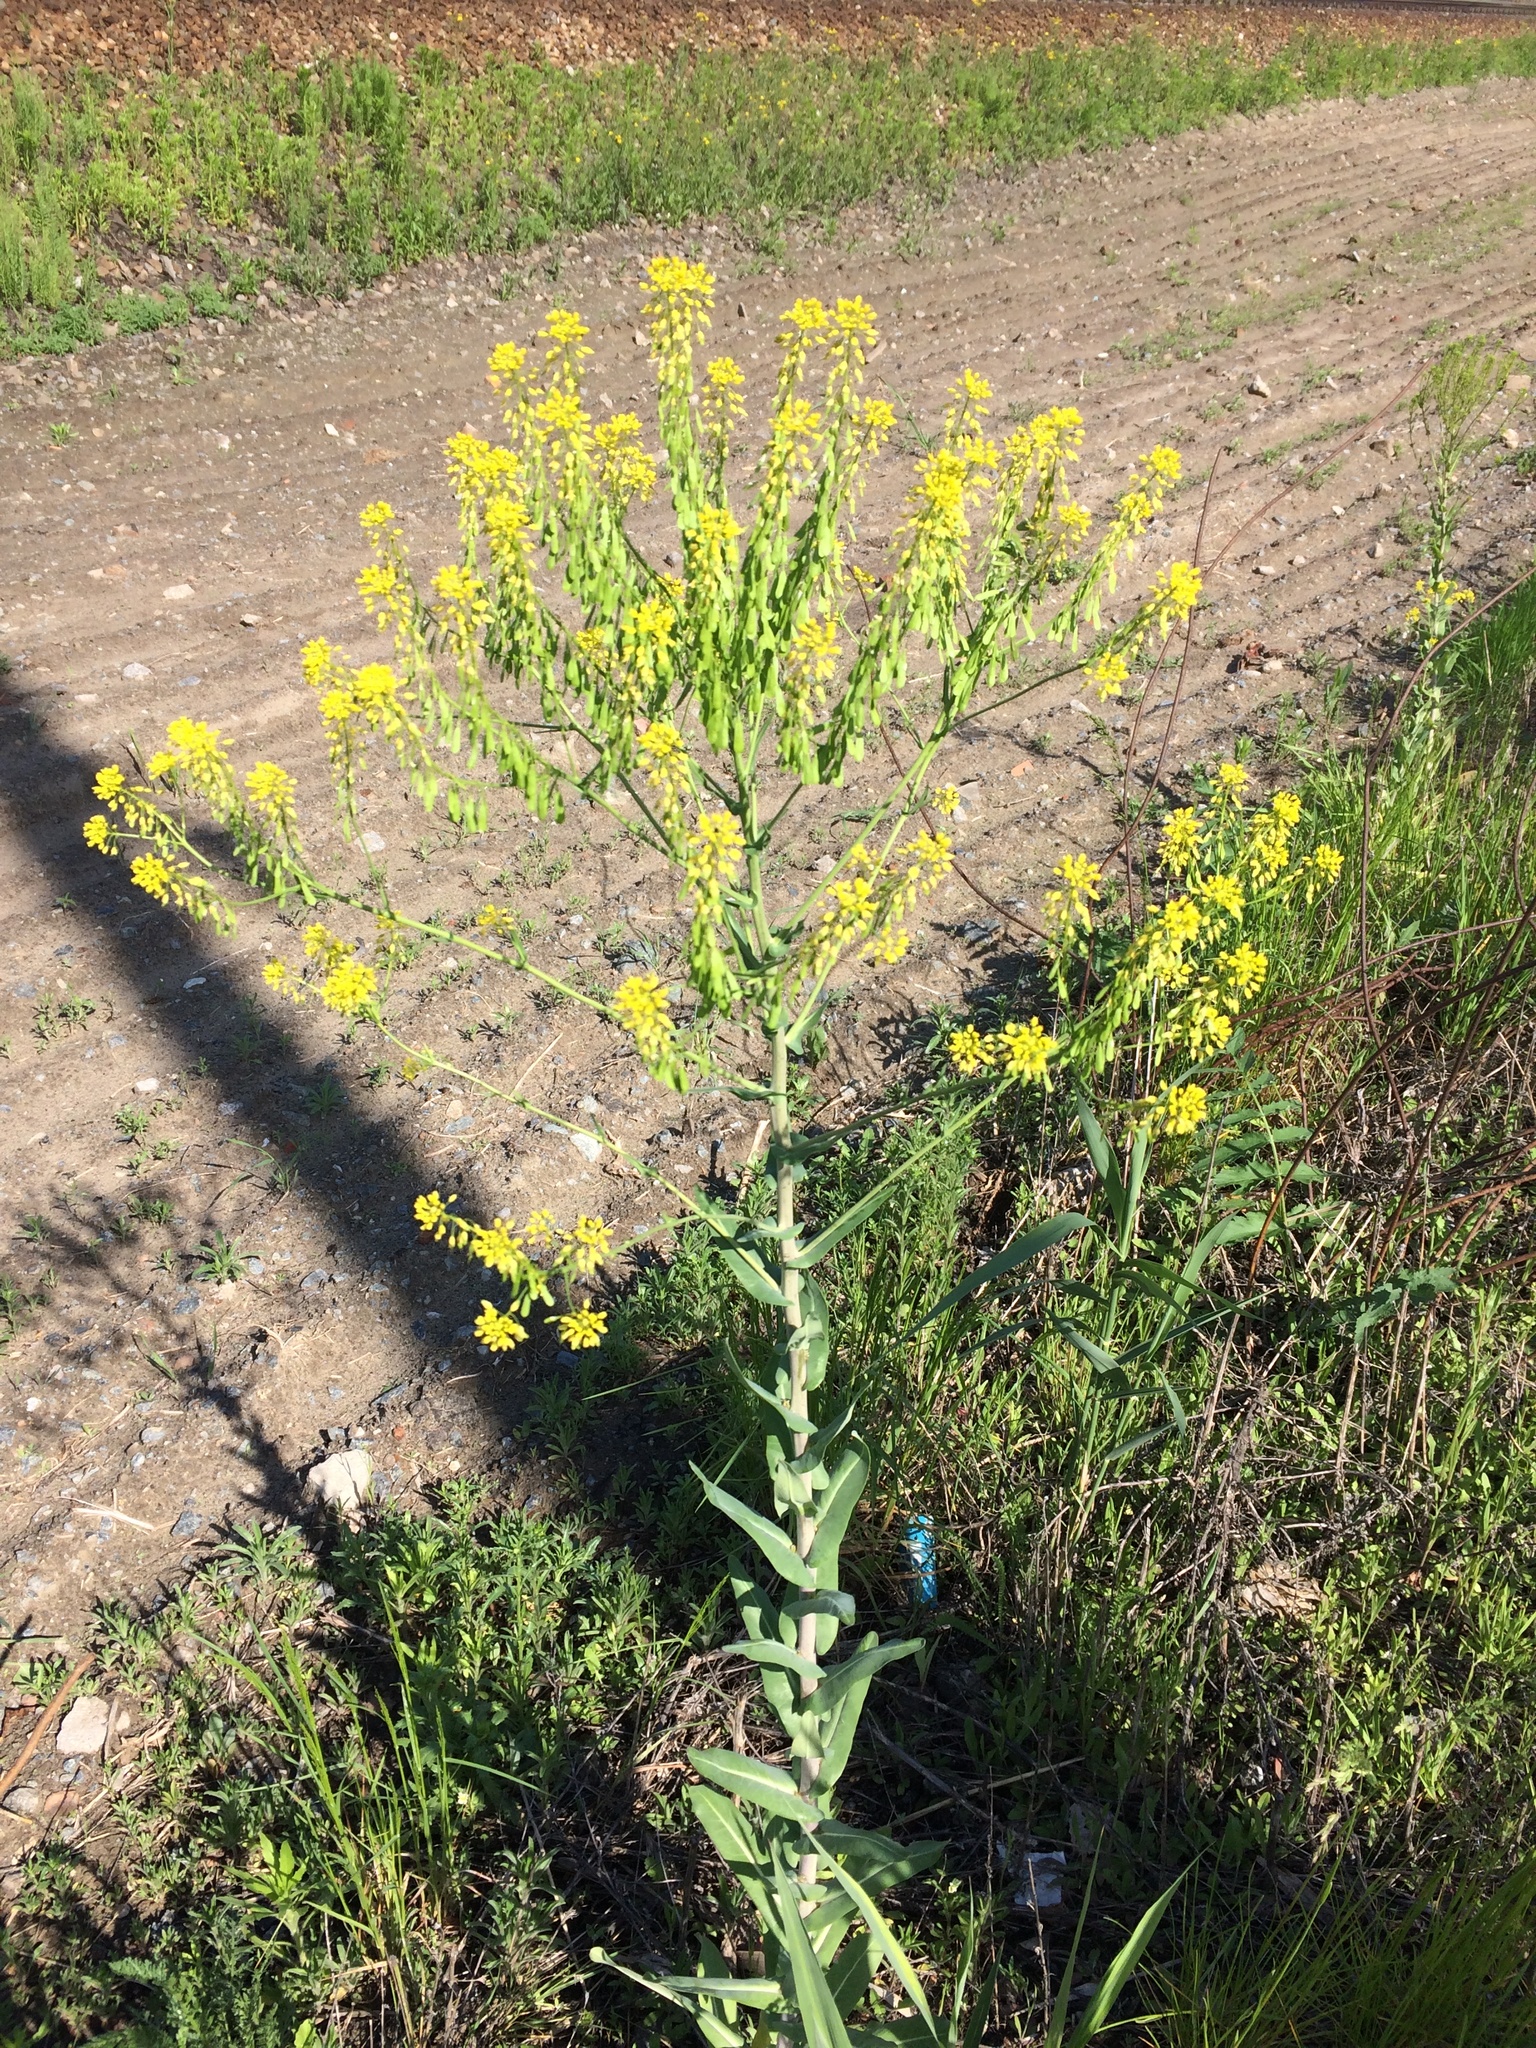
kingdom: Plantae
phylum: Tracheophyta
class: Magnoliopsida
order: Brassicales
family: Brassicaceae
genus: Isatis
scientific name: Isatis costata
